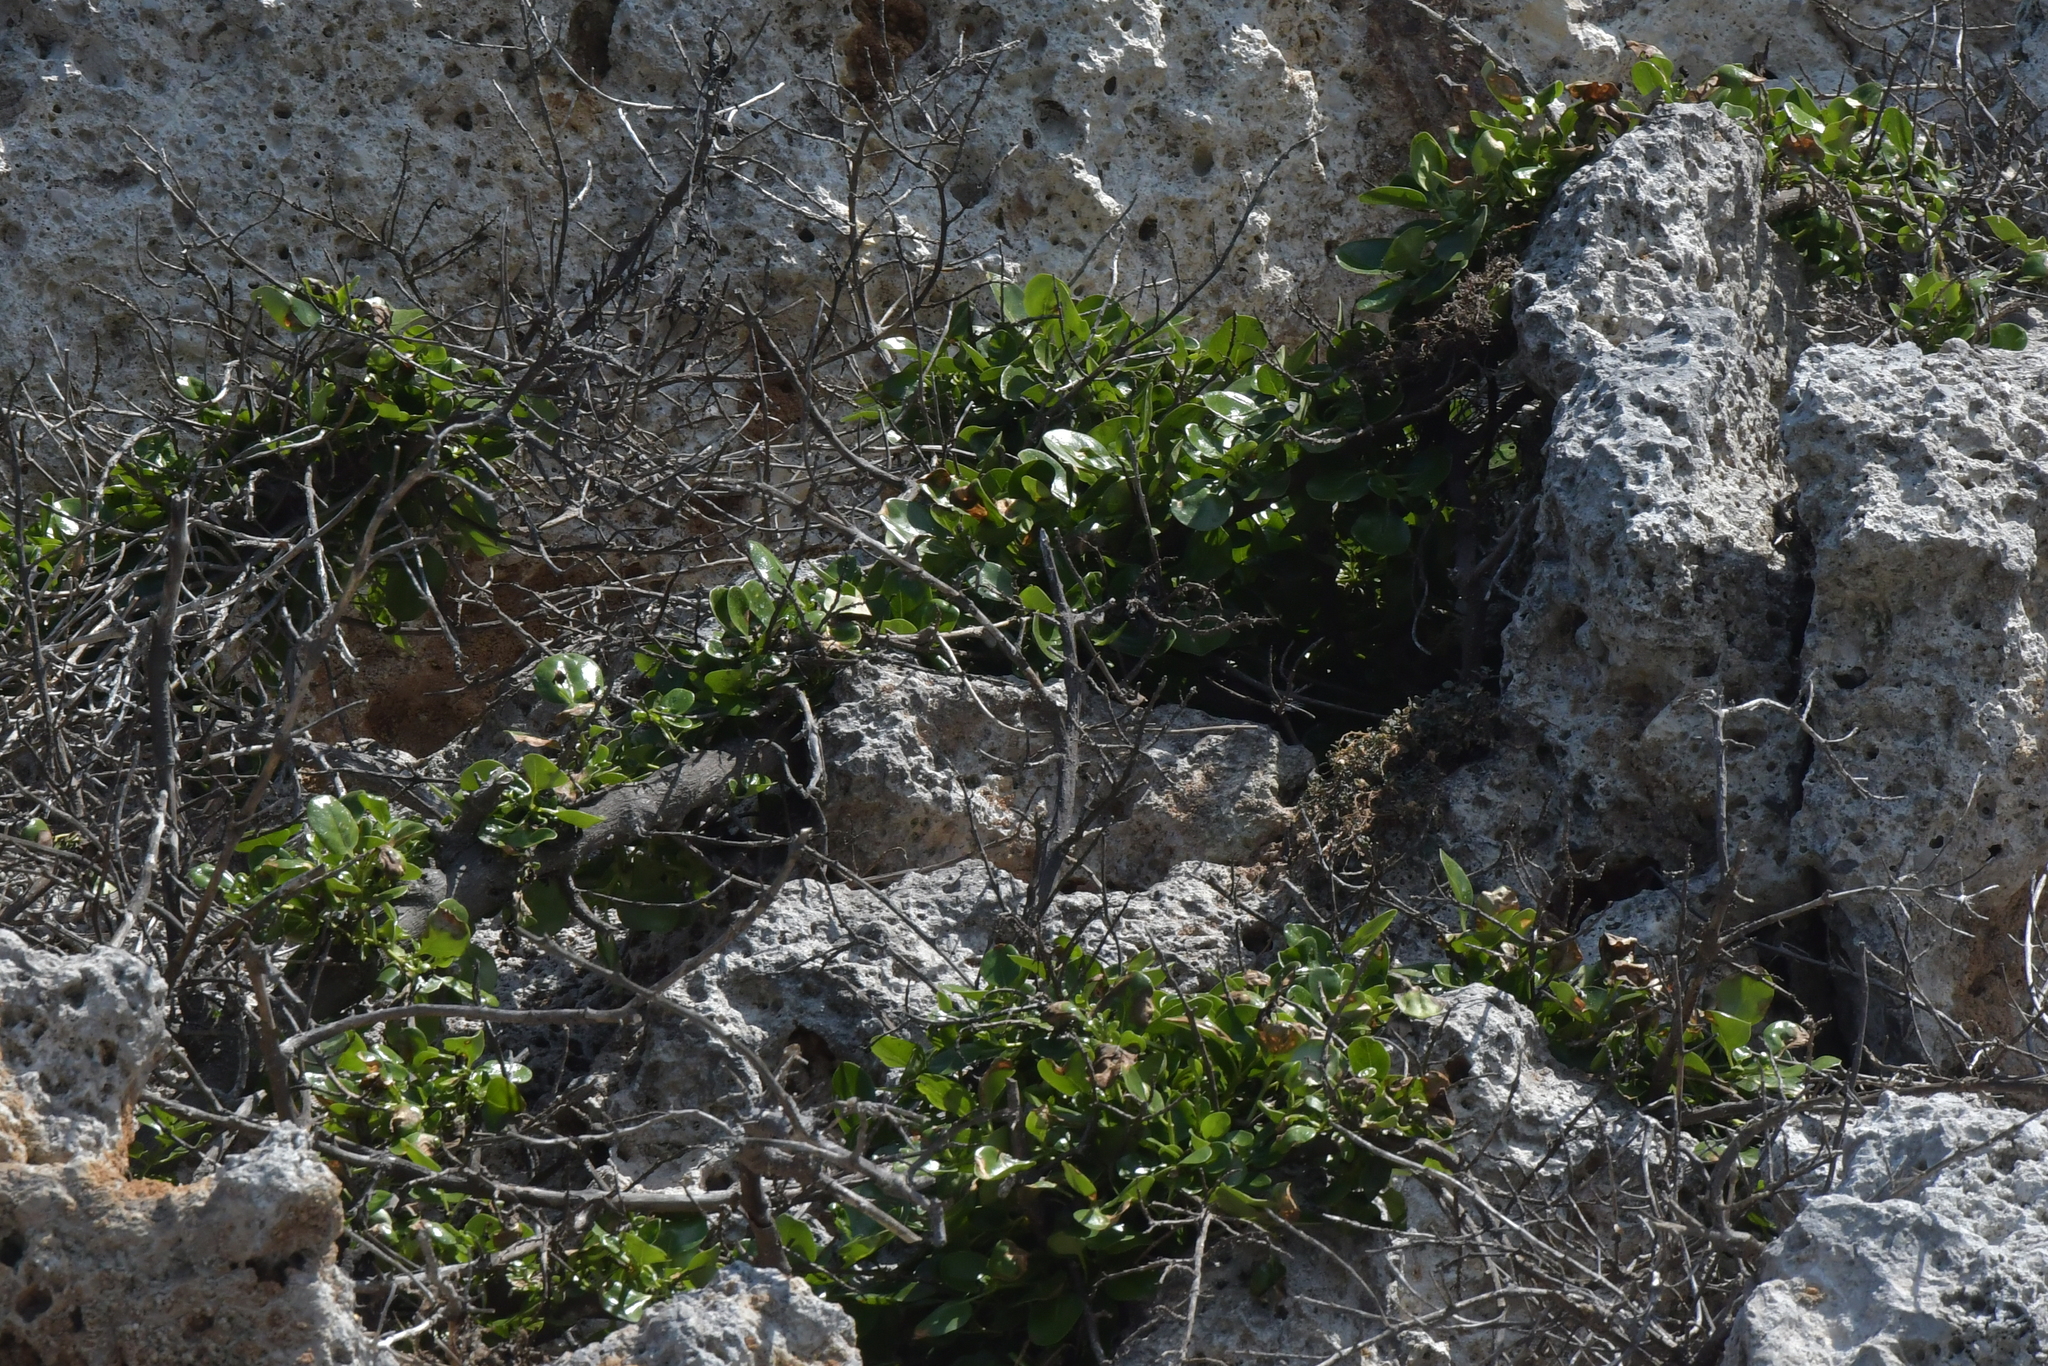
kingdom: Plantae
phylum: Tracheophyta
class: Magnoliopsida
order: Gentianales
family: Rubiaceae
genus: Coprosma
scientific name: Coprosma repens
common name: Tree bedstraw
